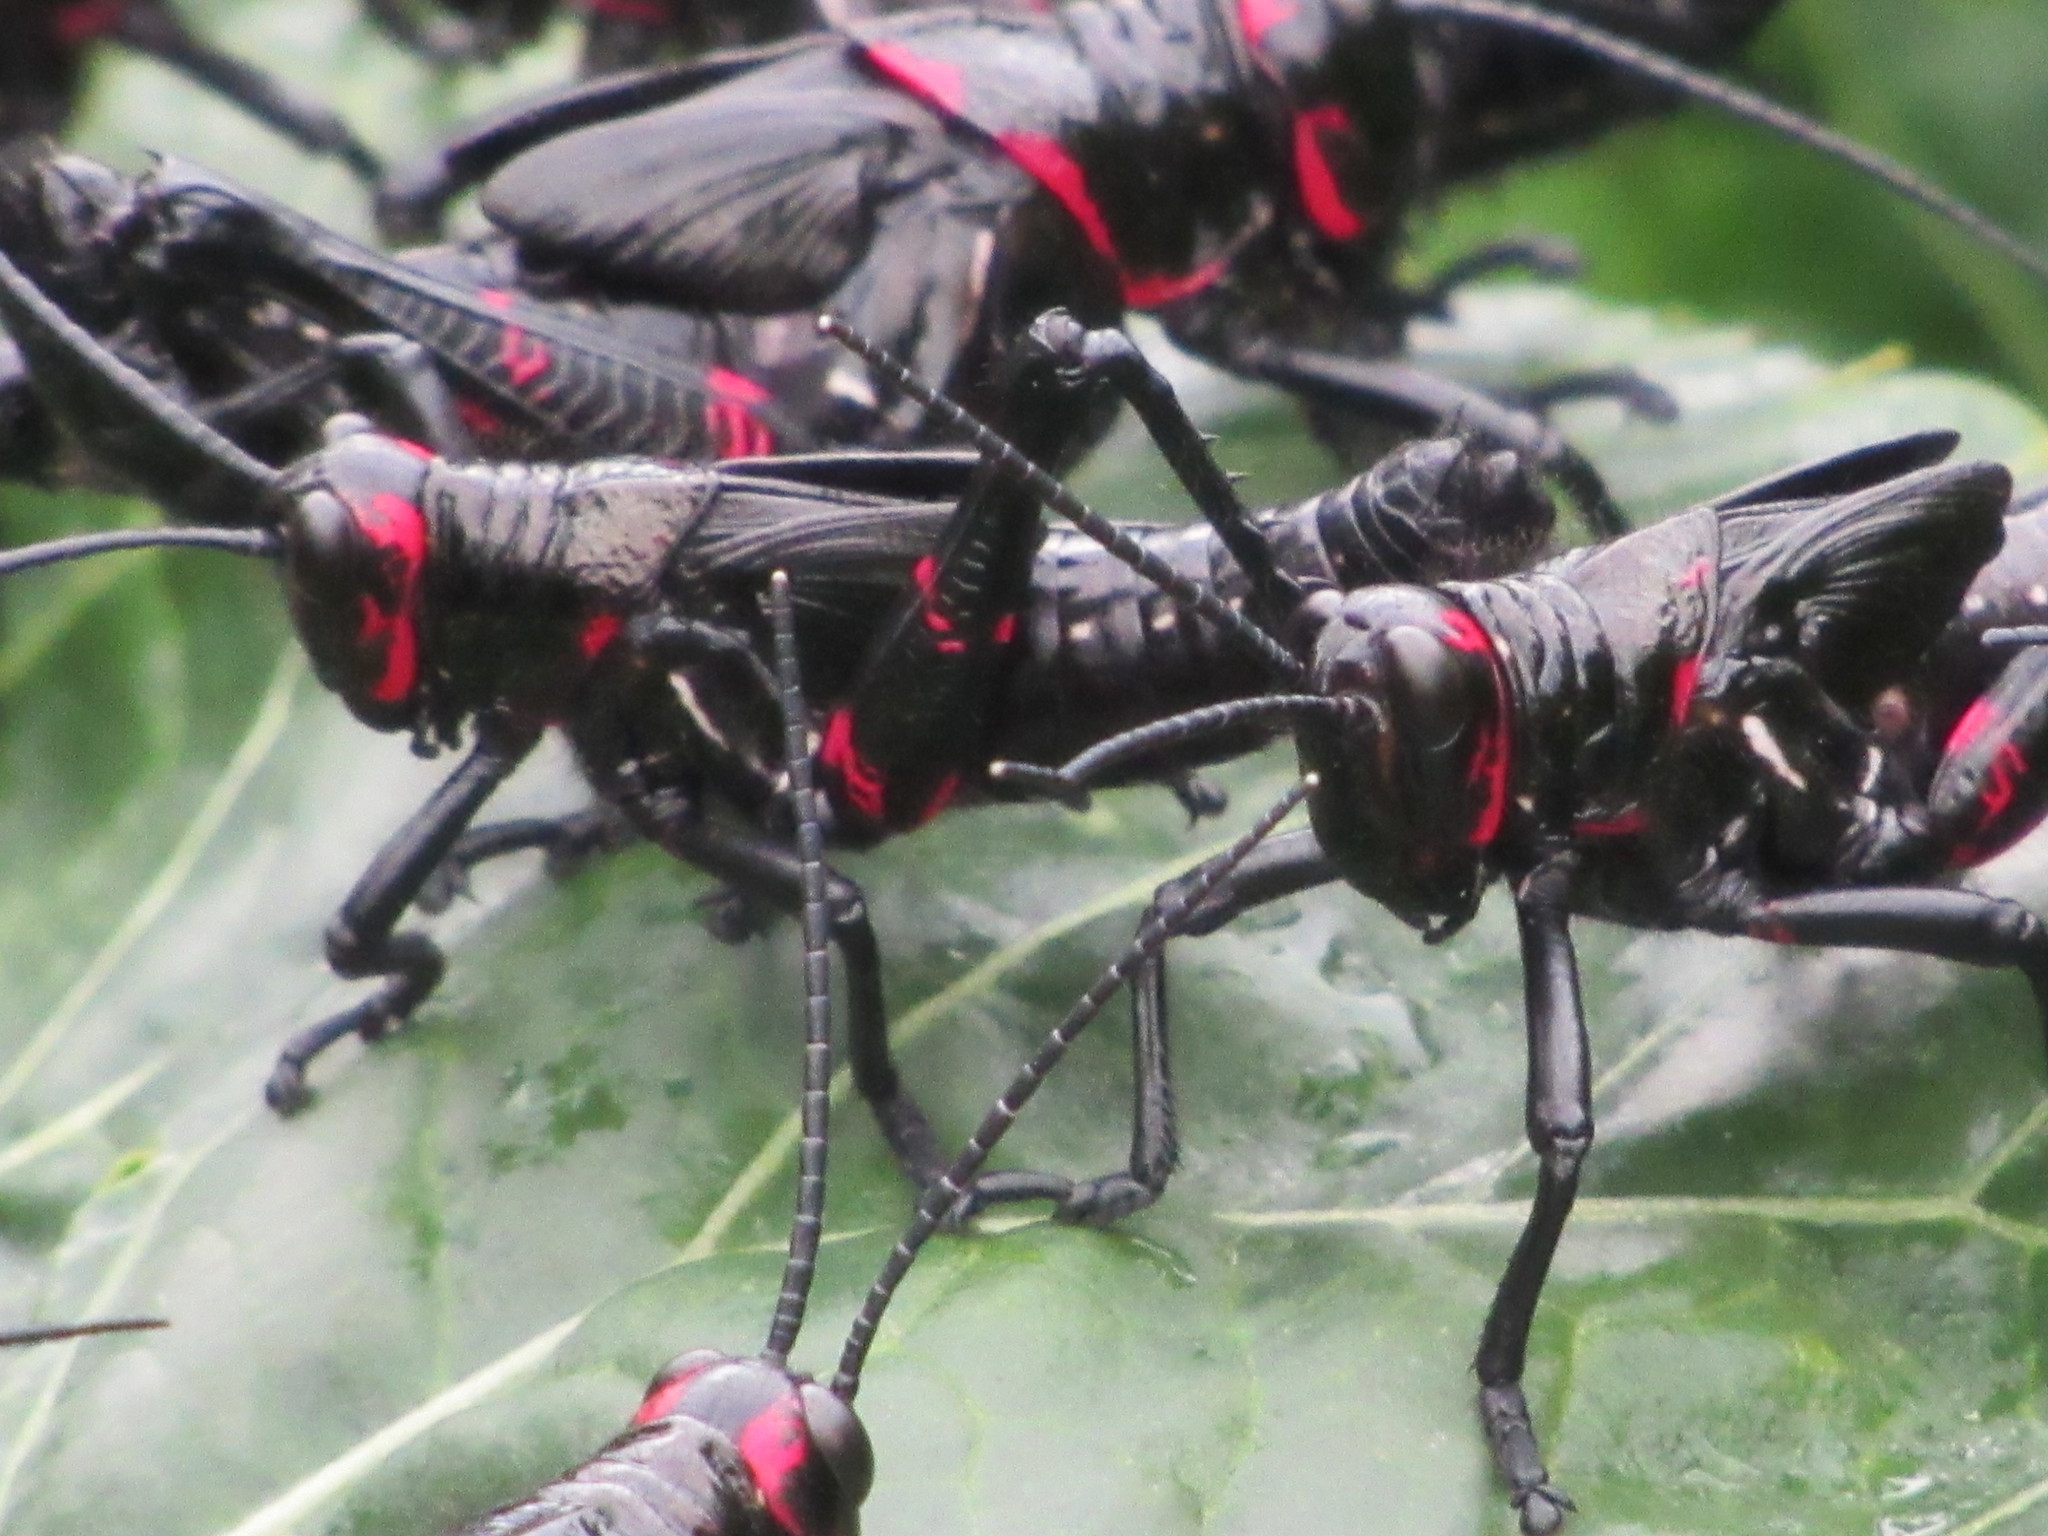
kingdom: Animalia
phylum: Arthropoda
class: Insecta
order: Orthoptera
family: Romaleidae
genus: Chromacris
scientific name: Chromacris speciosa
